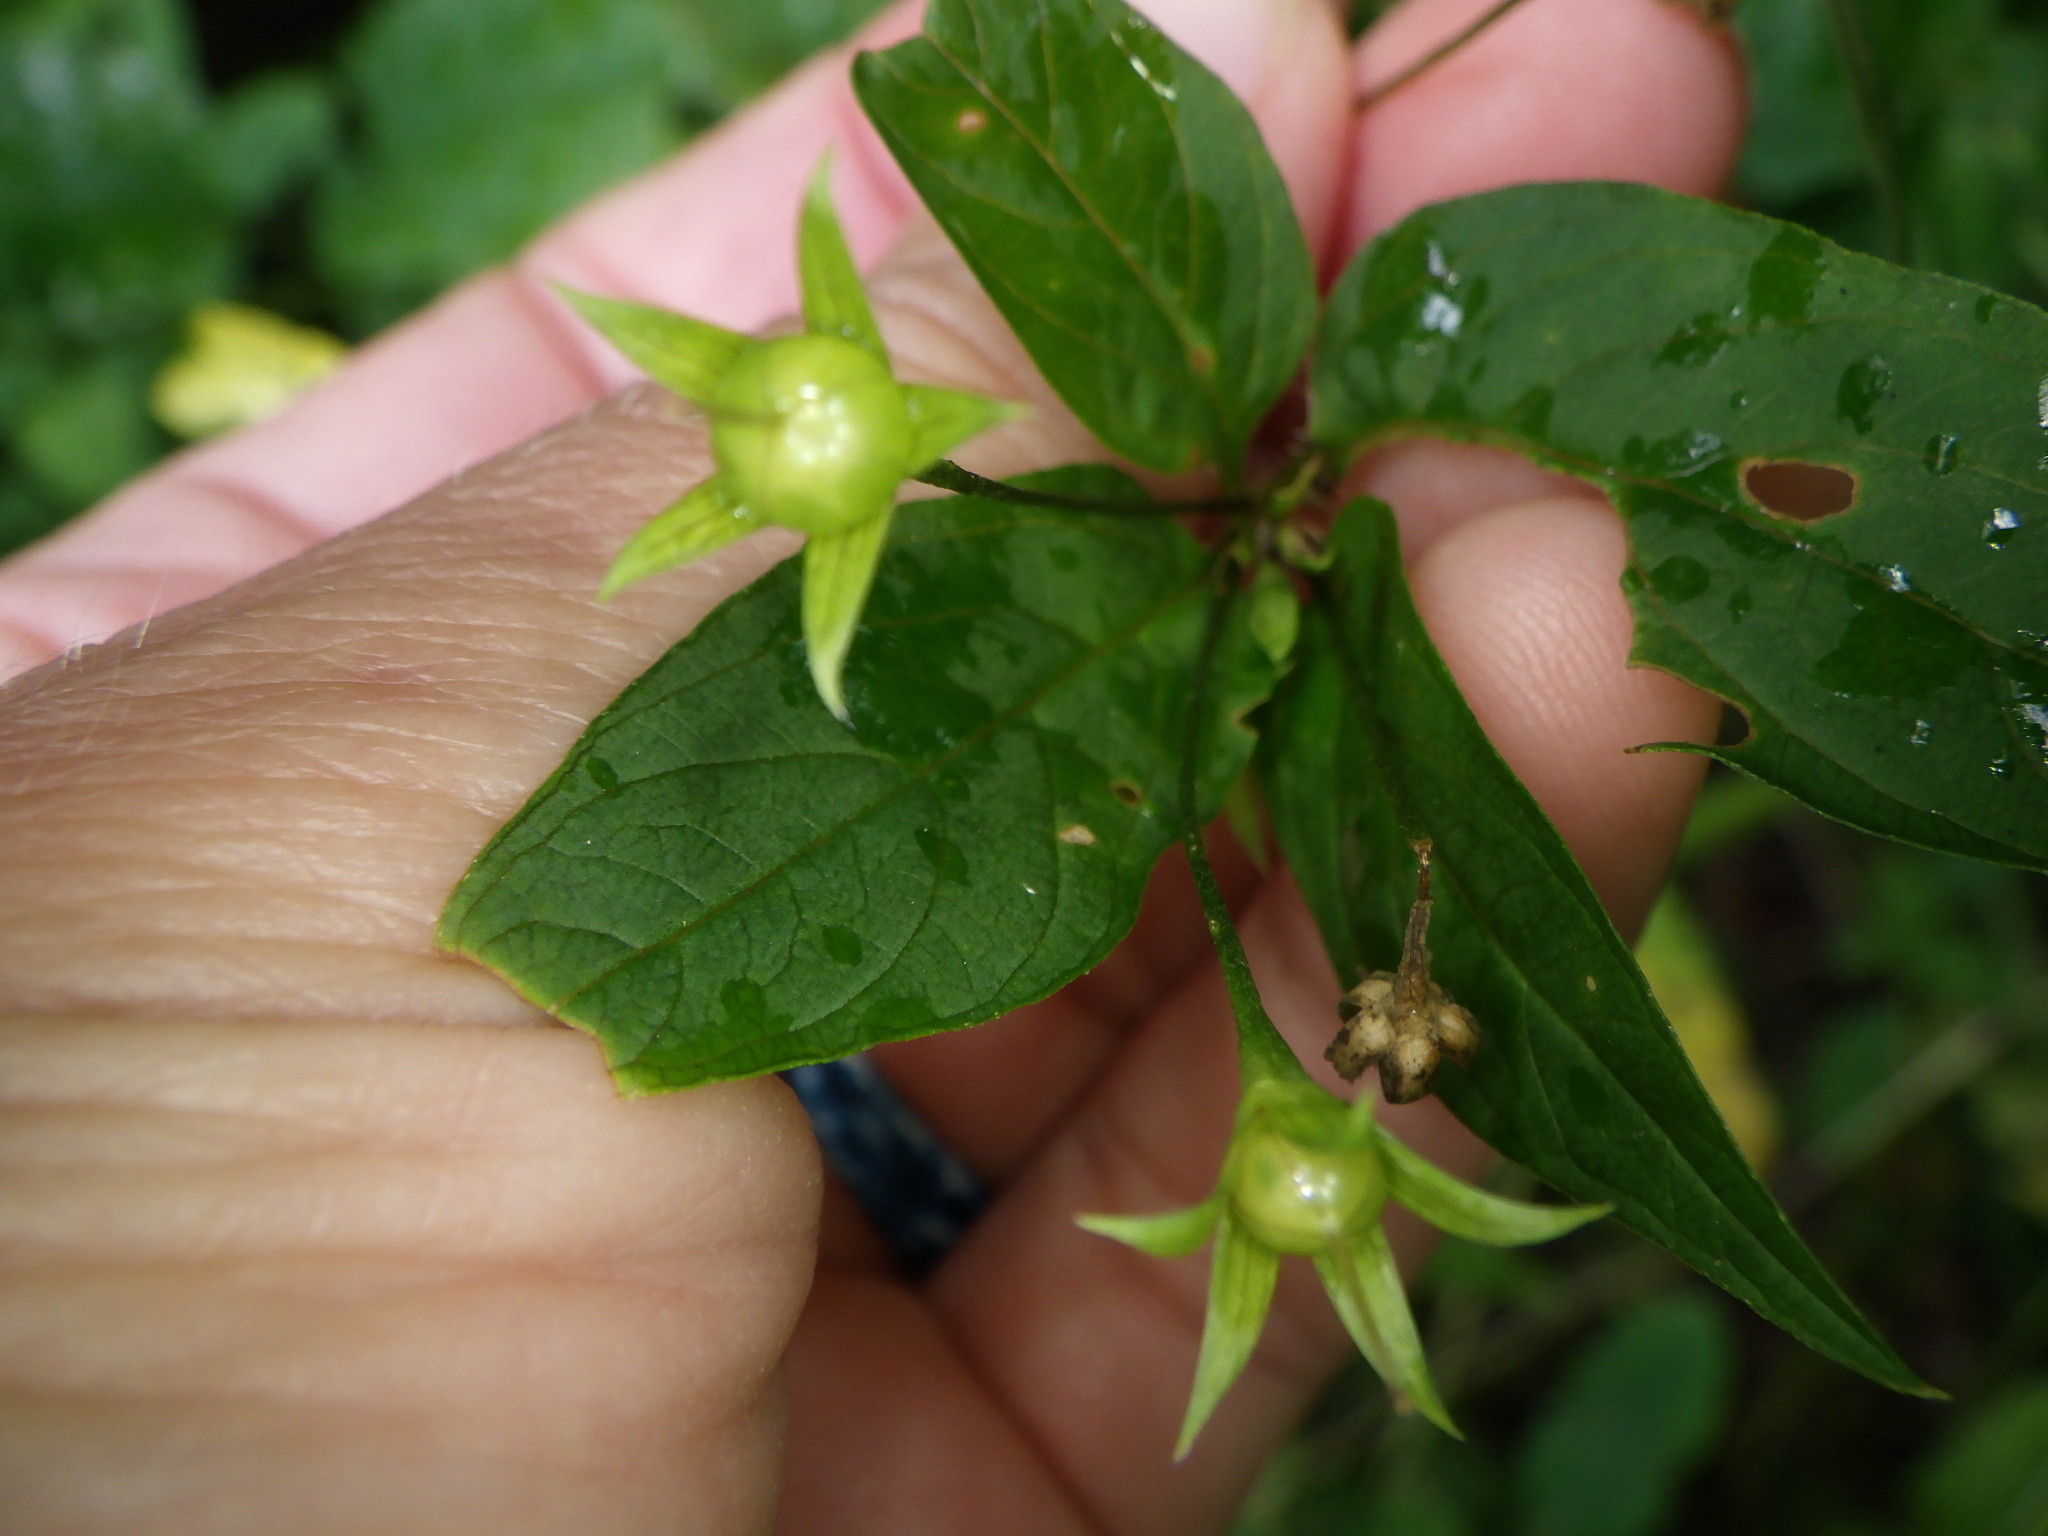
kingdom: Plantae
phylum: Tracheophyta
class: Magnoliopsida
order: Ericales
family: Primulaceae
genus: Lysimachia
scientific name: Lysimachia ciliata
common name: Fringed loosestrife
